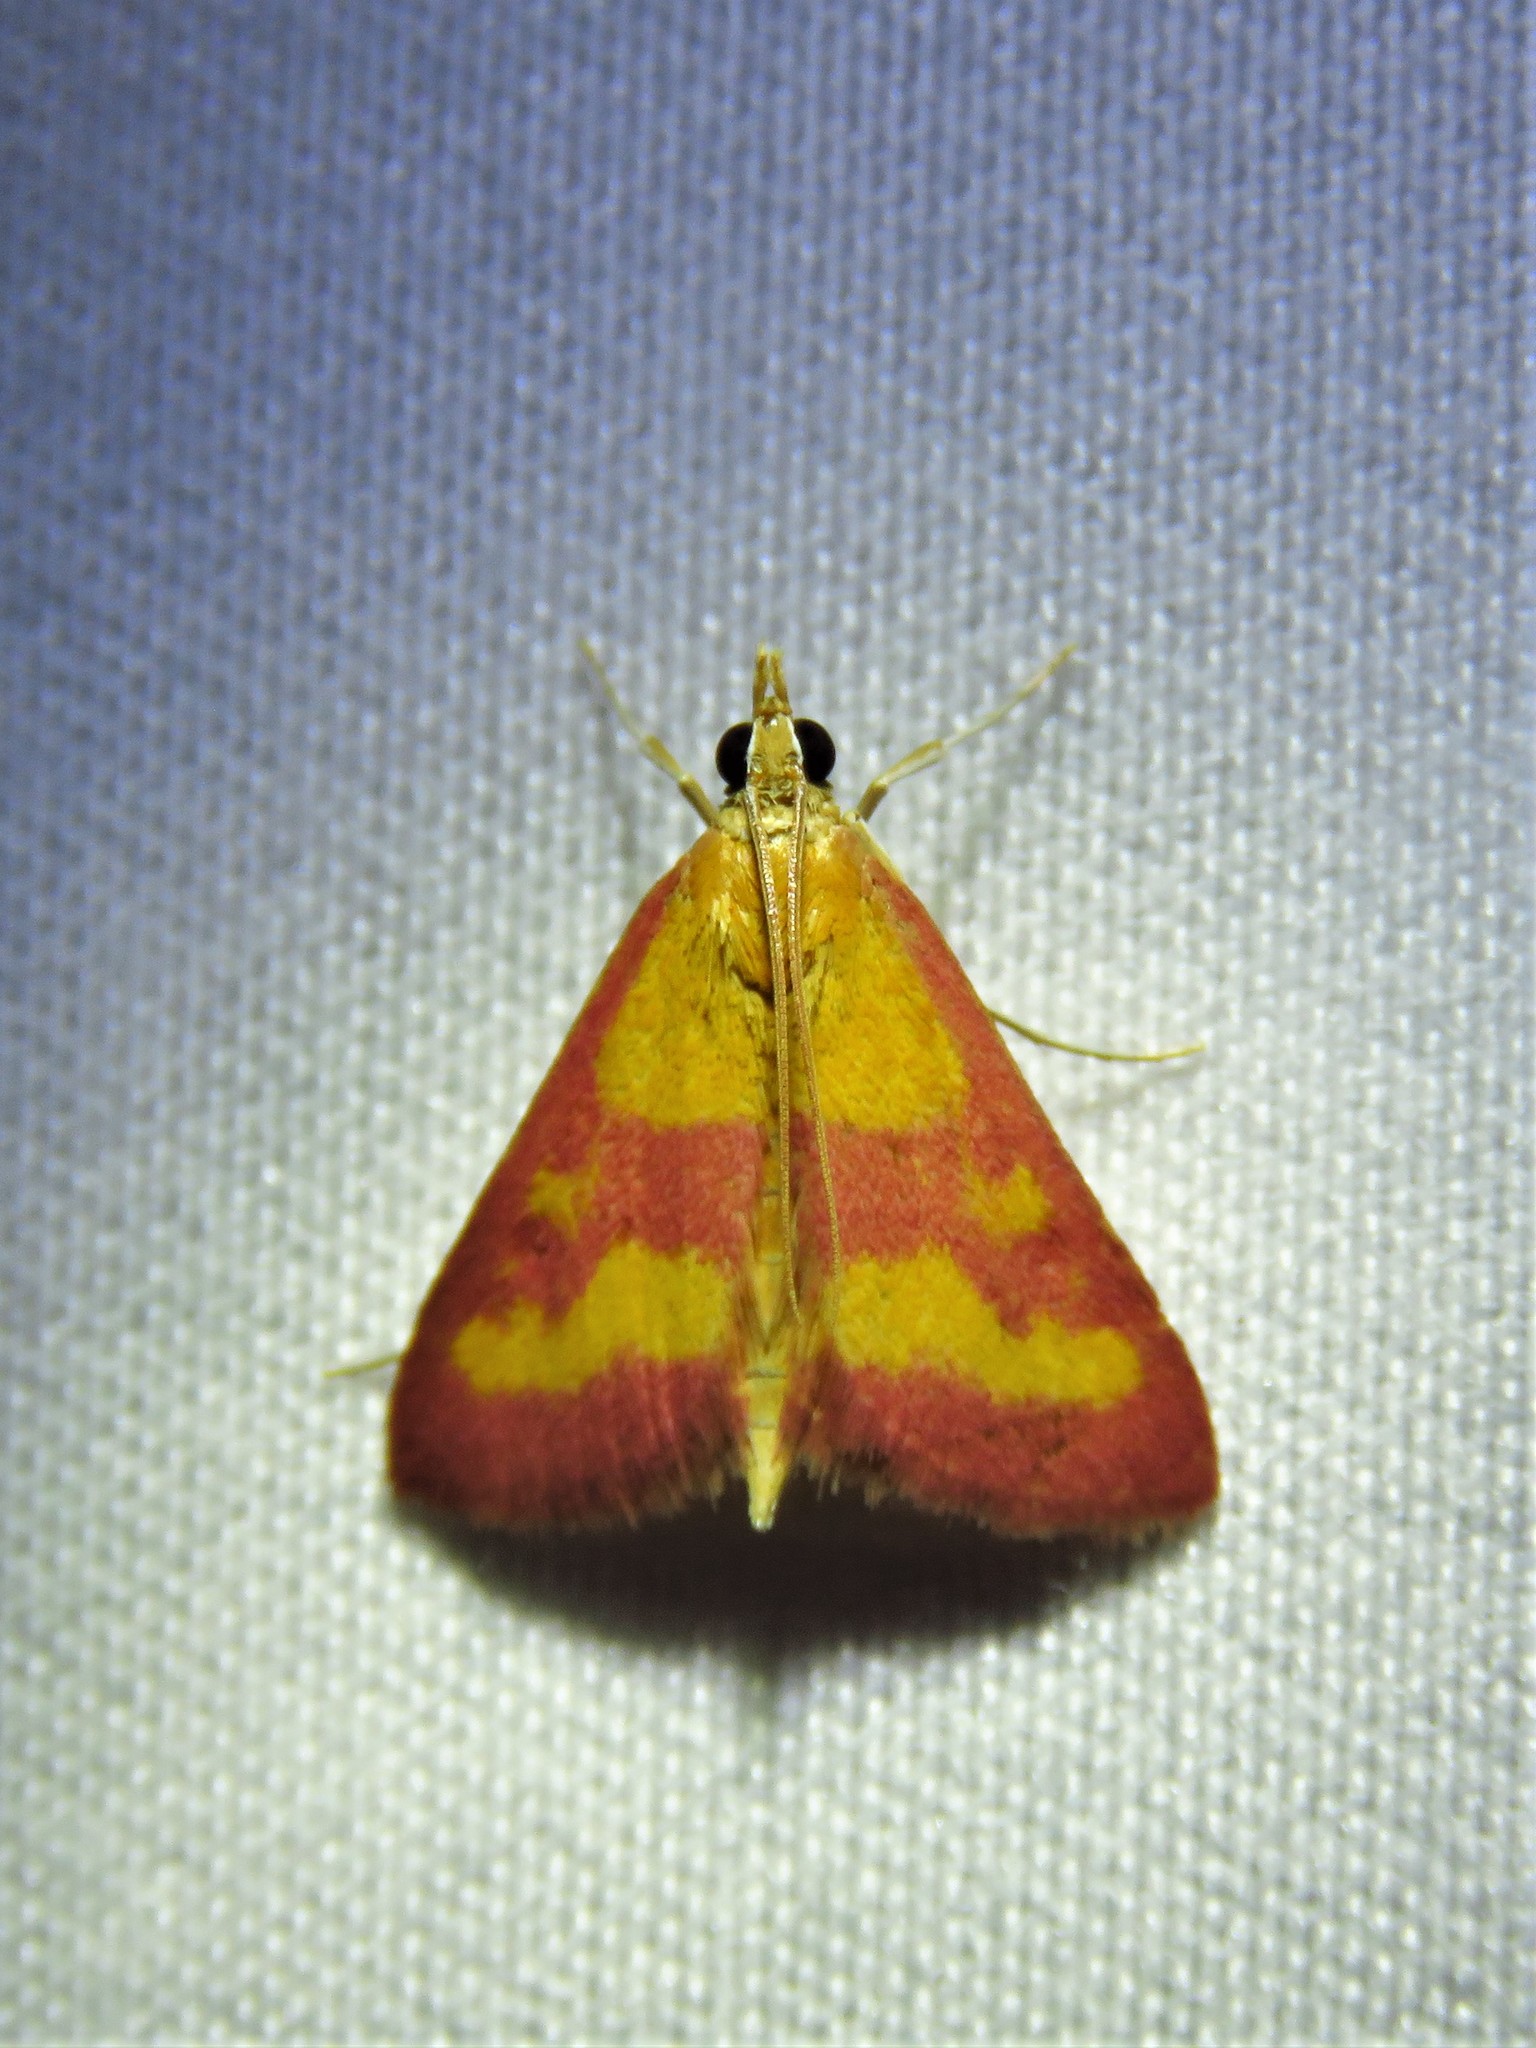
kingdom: Animalia
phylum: Arthropoda
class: Insecta
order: Lepidoptera
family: Crambidae
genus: Pyrausta
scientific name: Pyrausta laticlavia
